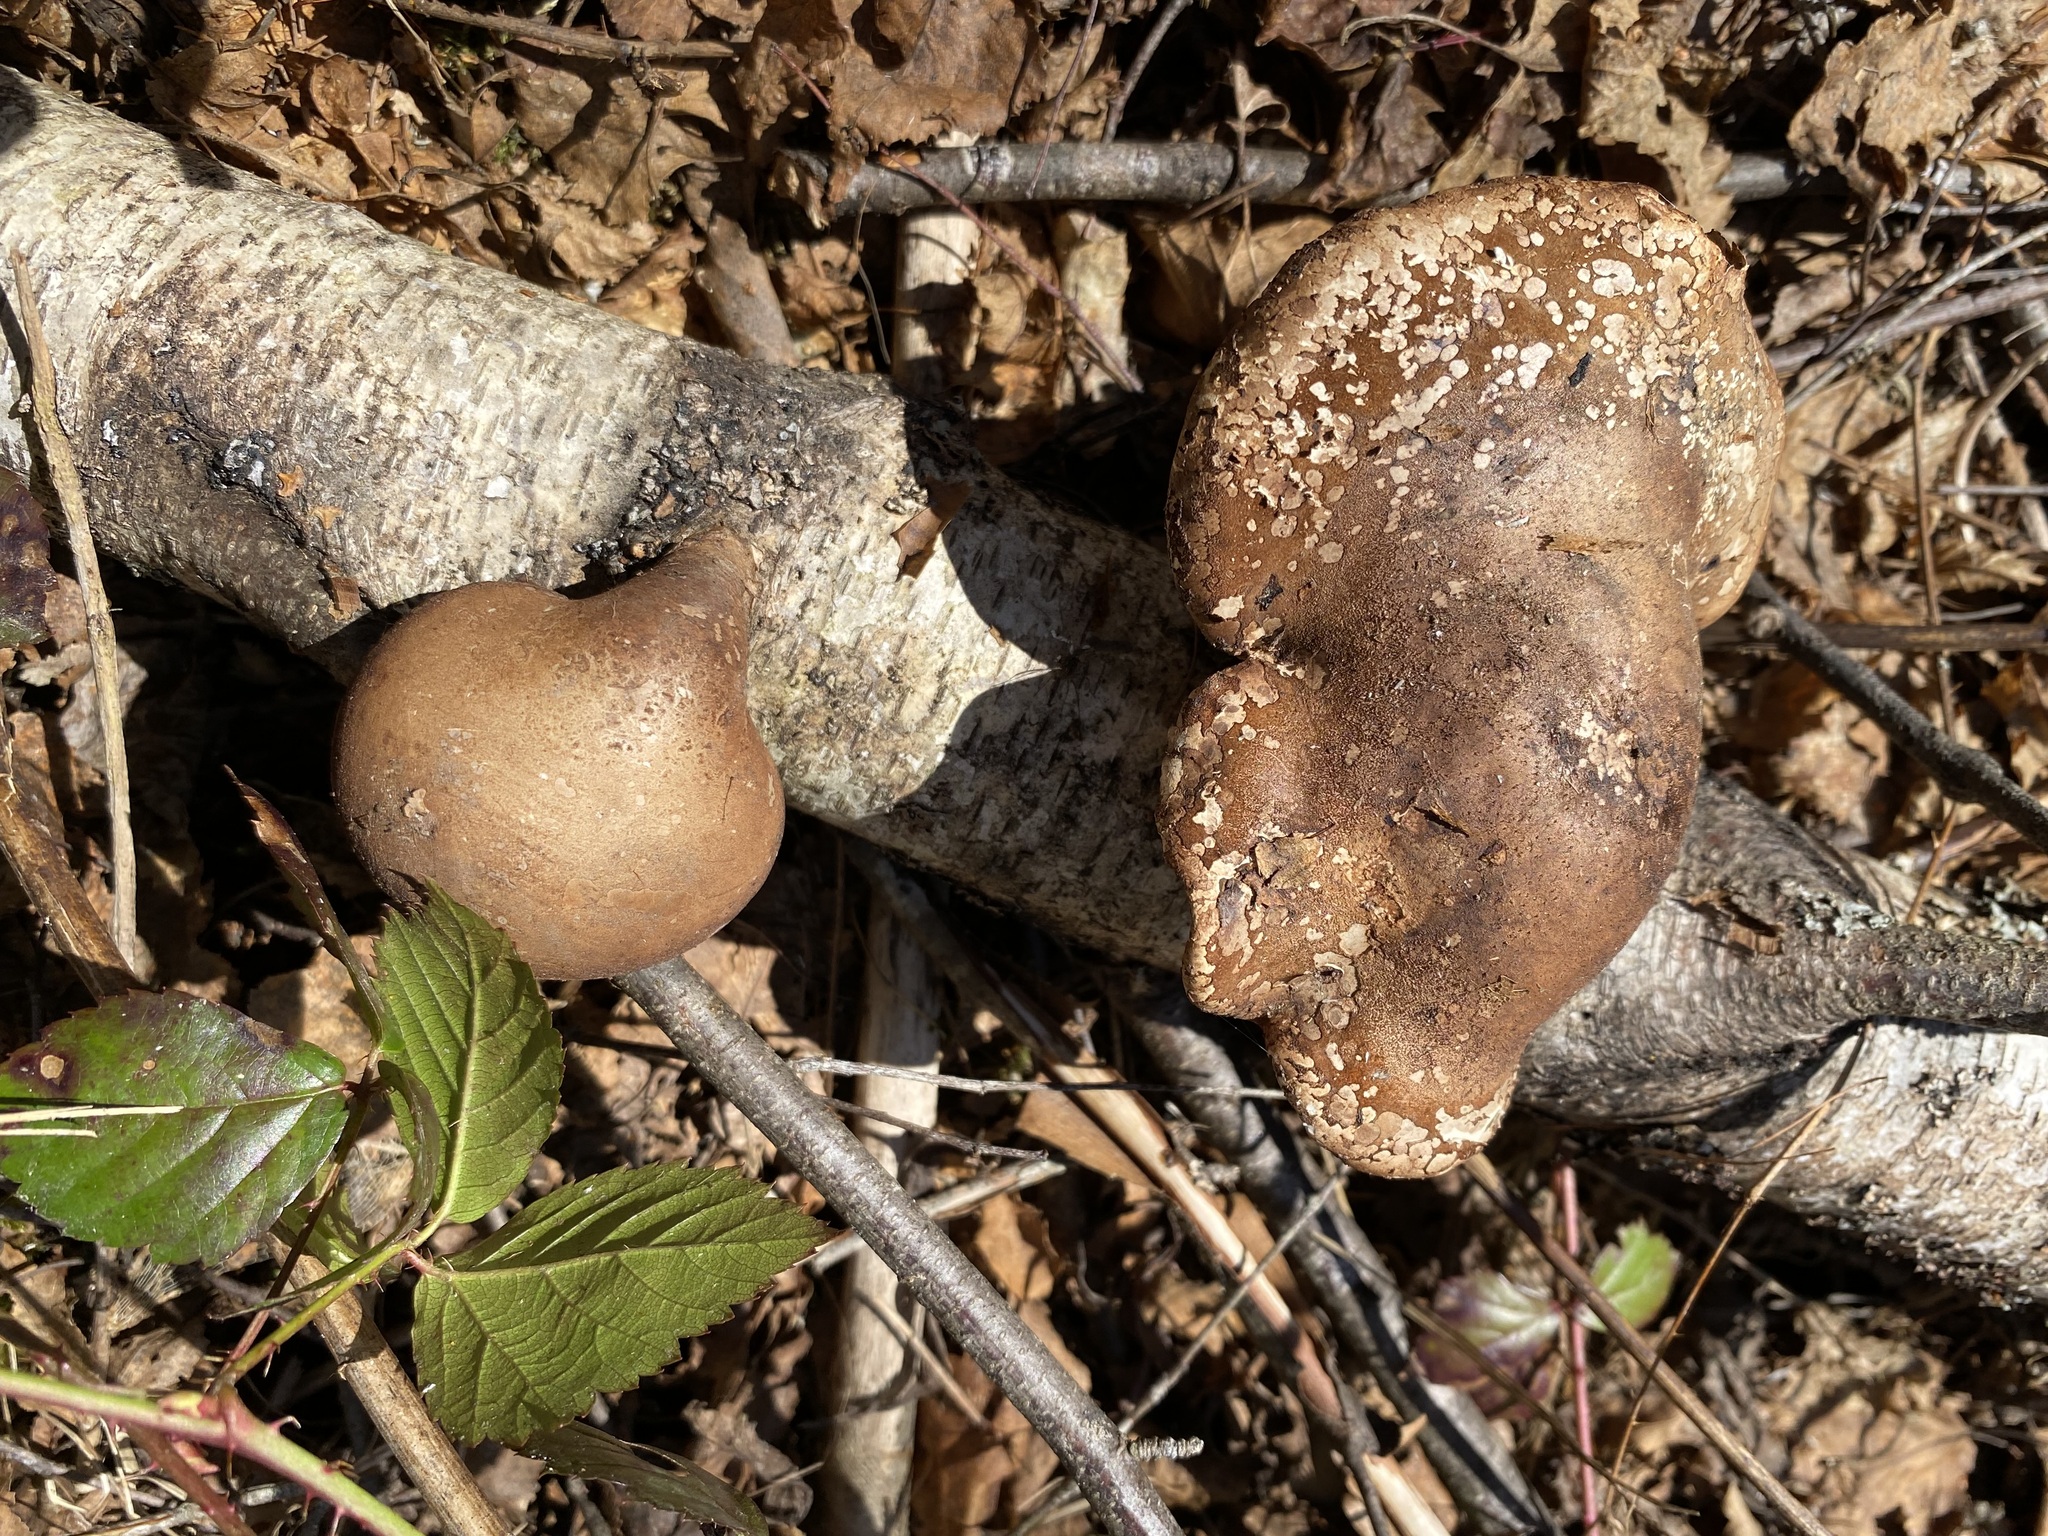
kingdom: Fungi
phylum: Basidiomycota
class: Agaricomycetes
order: Polyporales
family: Fomitopsidaceae
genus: Fomitopsis
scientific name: Fomitopsis betulina
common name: Birch polypore
